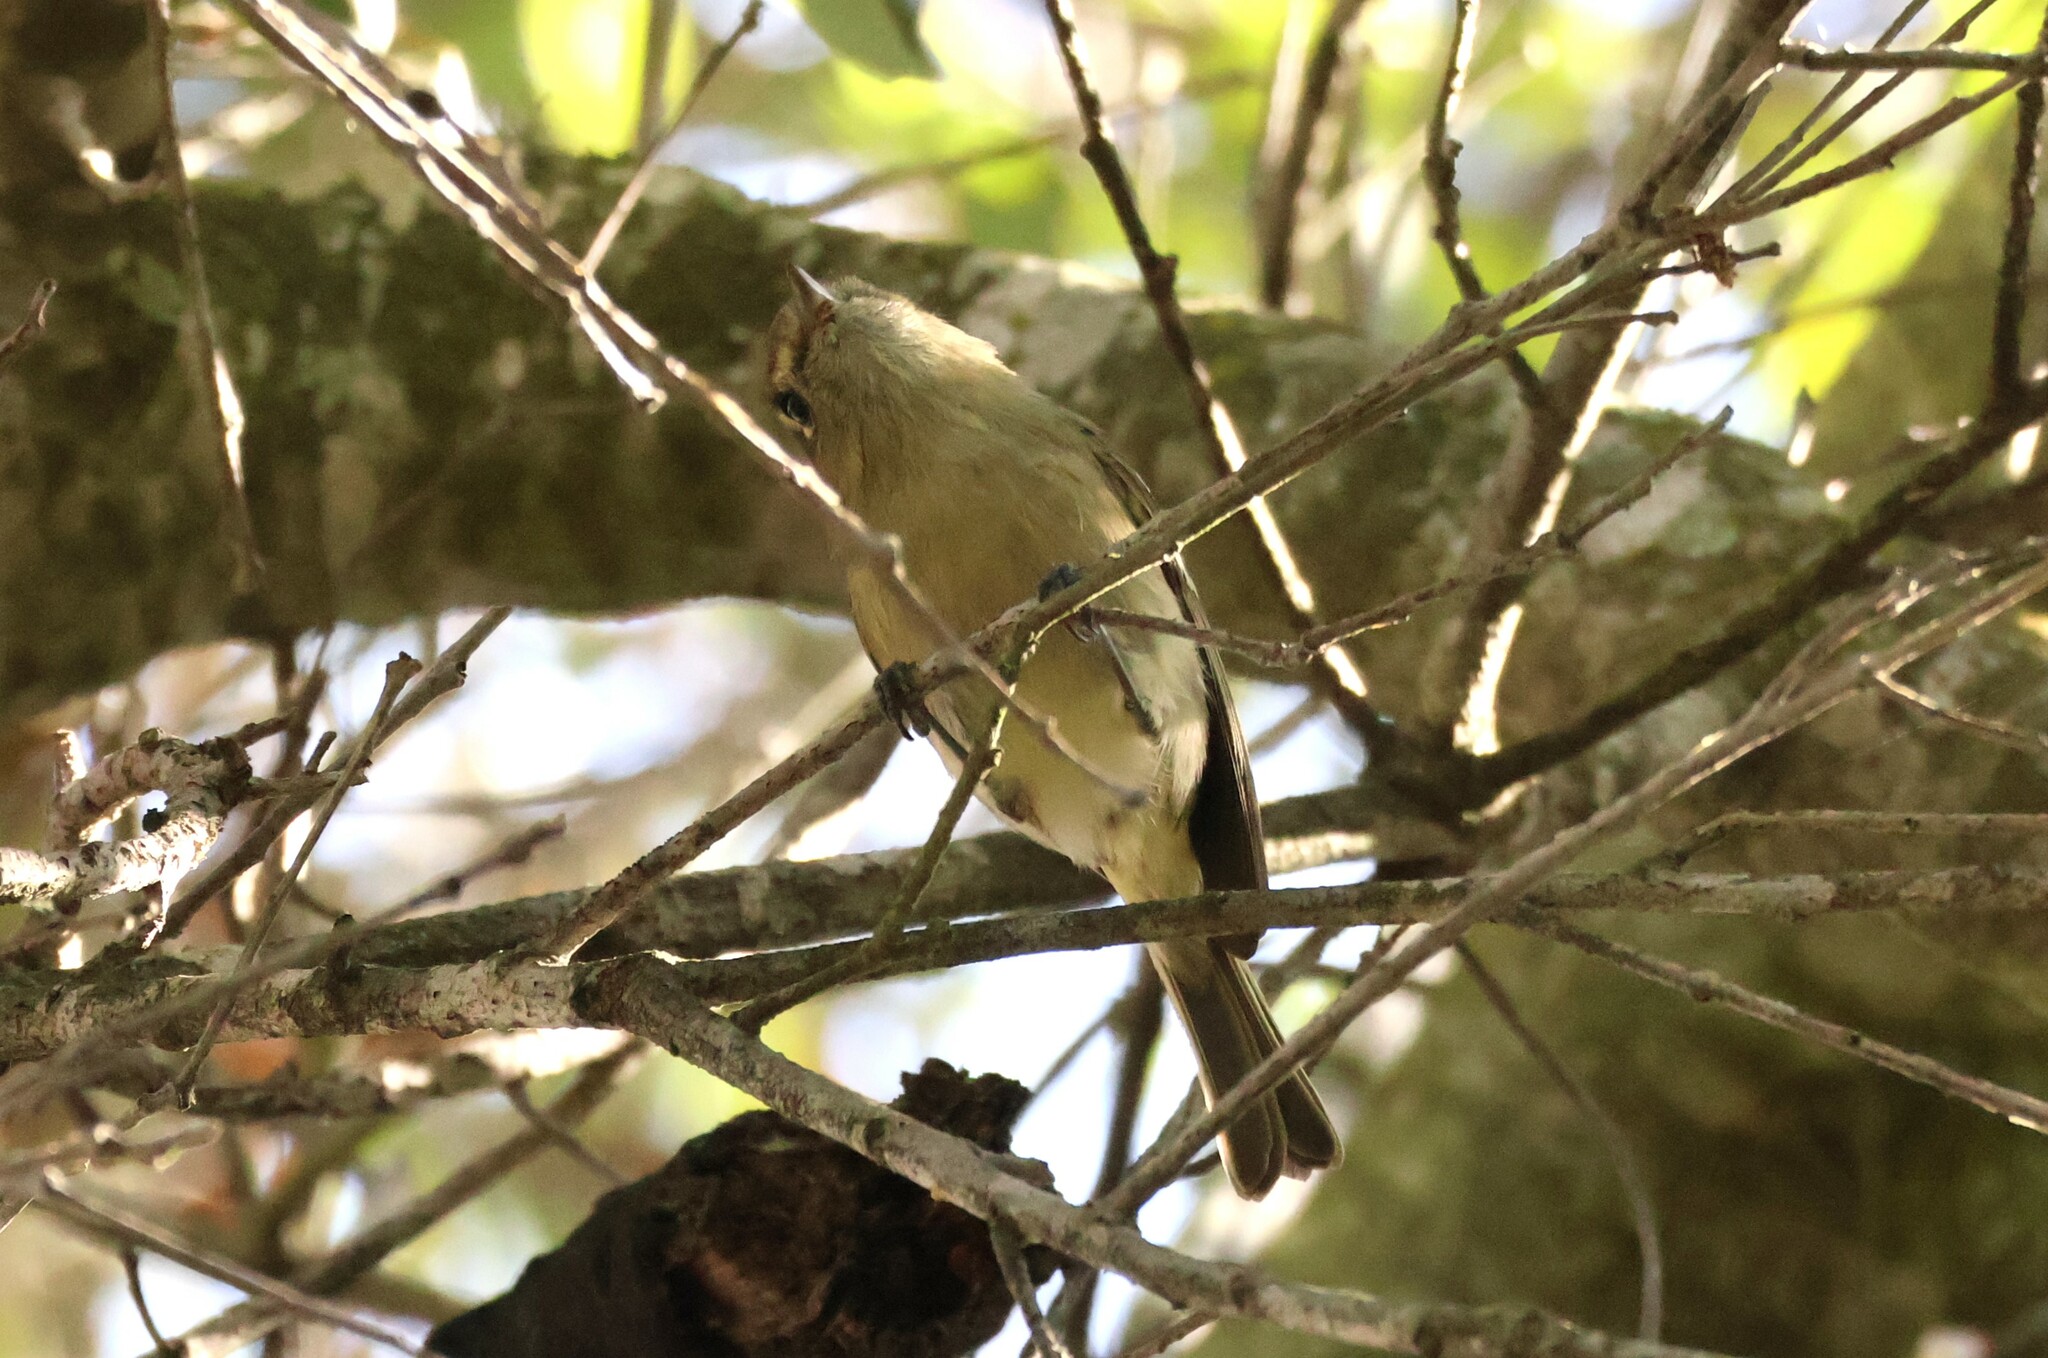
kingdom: Animalia
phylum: Chordata
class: Aves
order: Passeriformes
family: Vireonidae
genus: Vireo
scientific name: Vireo huttoni
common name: Hutton's vireo
